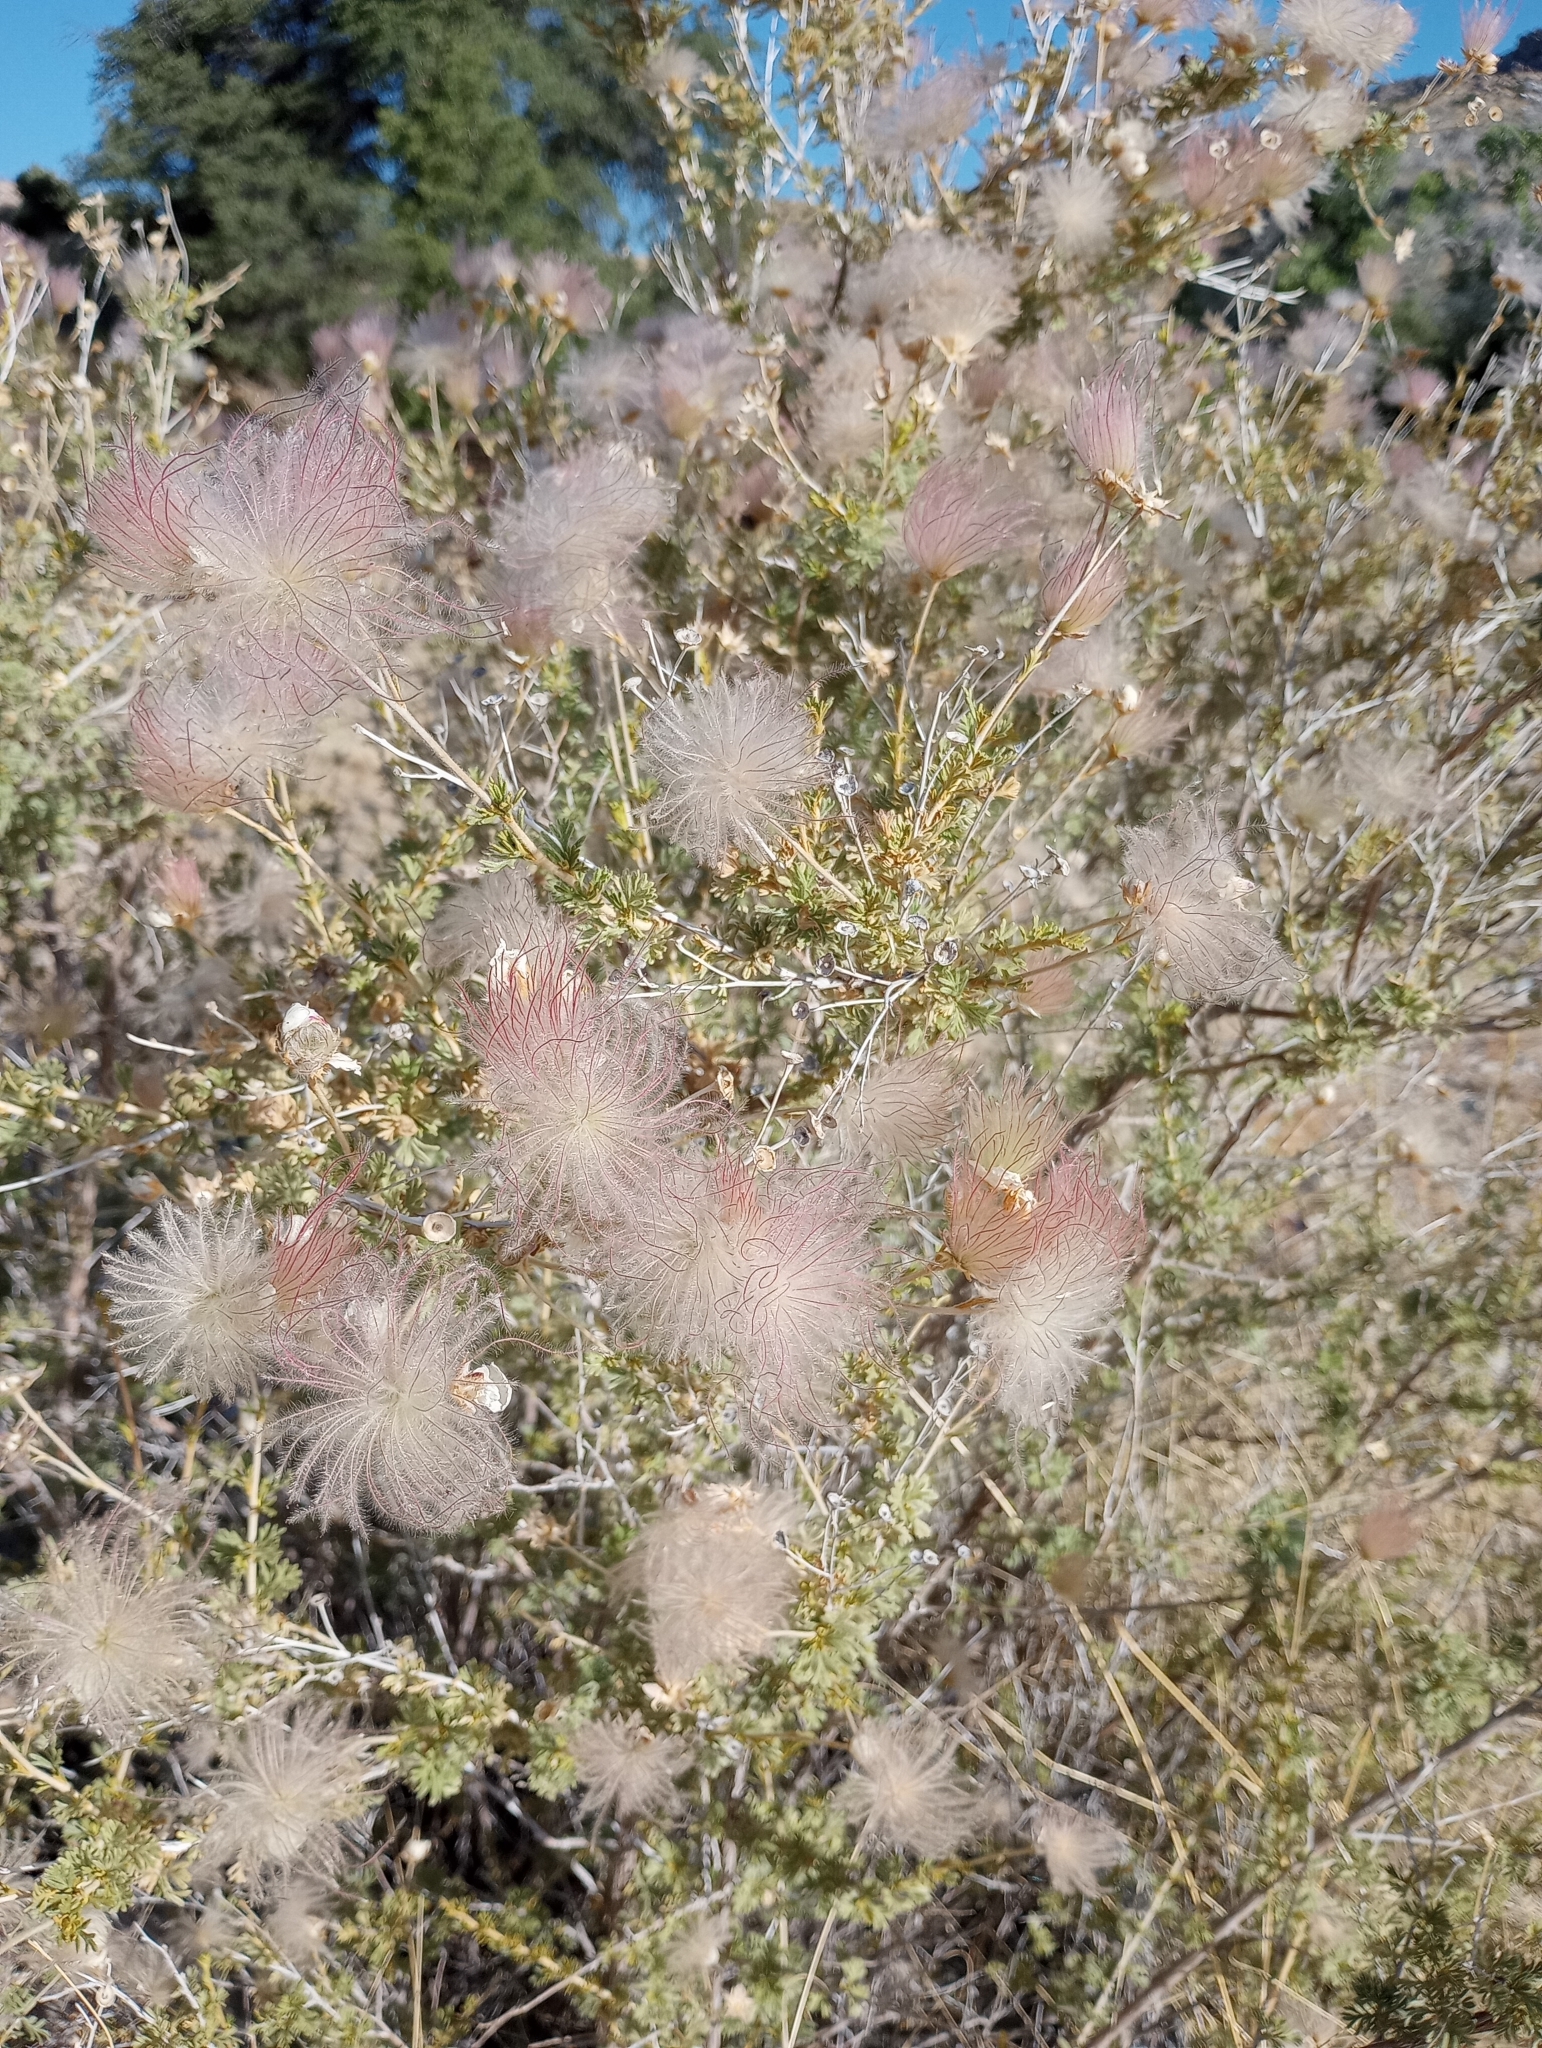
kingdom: Plantae
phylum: Tracheophyta
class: Magnoliopsida
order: Rosales
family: Rosaceae
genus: Fallugia
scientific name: Fallugia paradoxa
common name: Apache-plume
